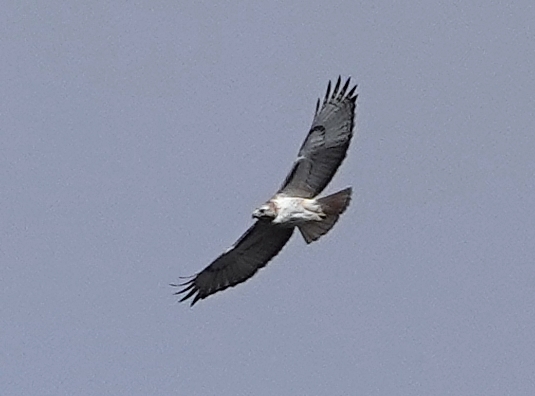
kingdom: Animalia
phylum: Chordata
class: Aves
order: Accipitriformes
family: Accipitridae
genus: Buteo
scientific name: Buteo jamaicensis
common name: Red-tailed hawk
